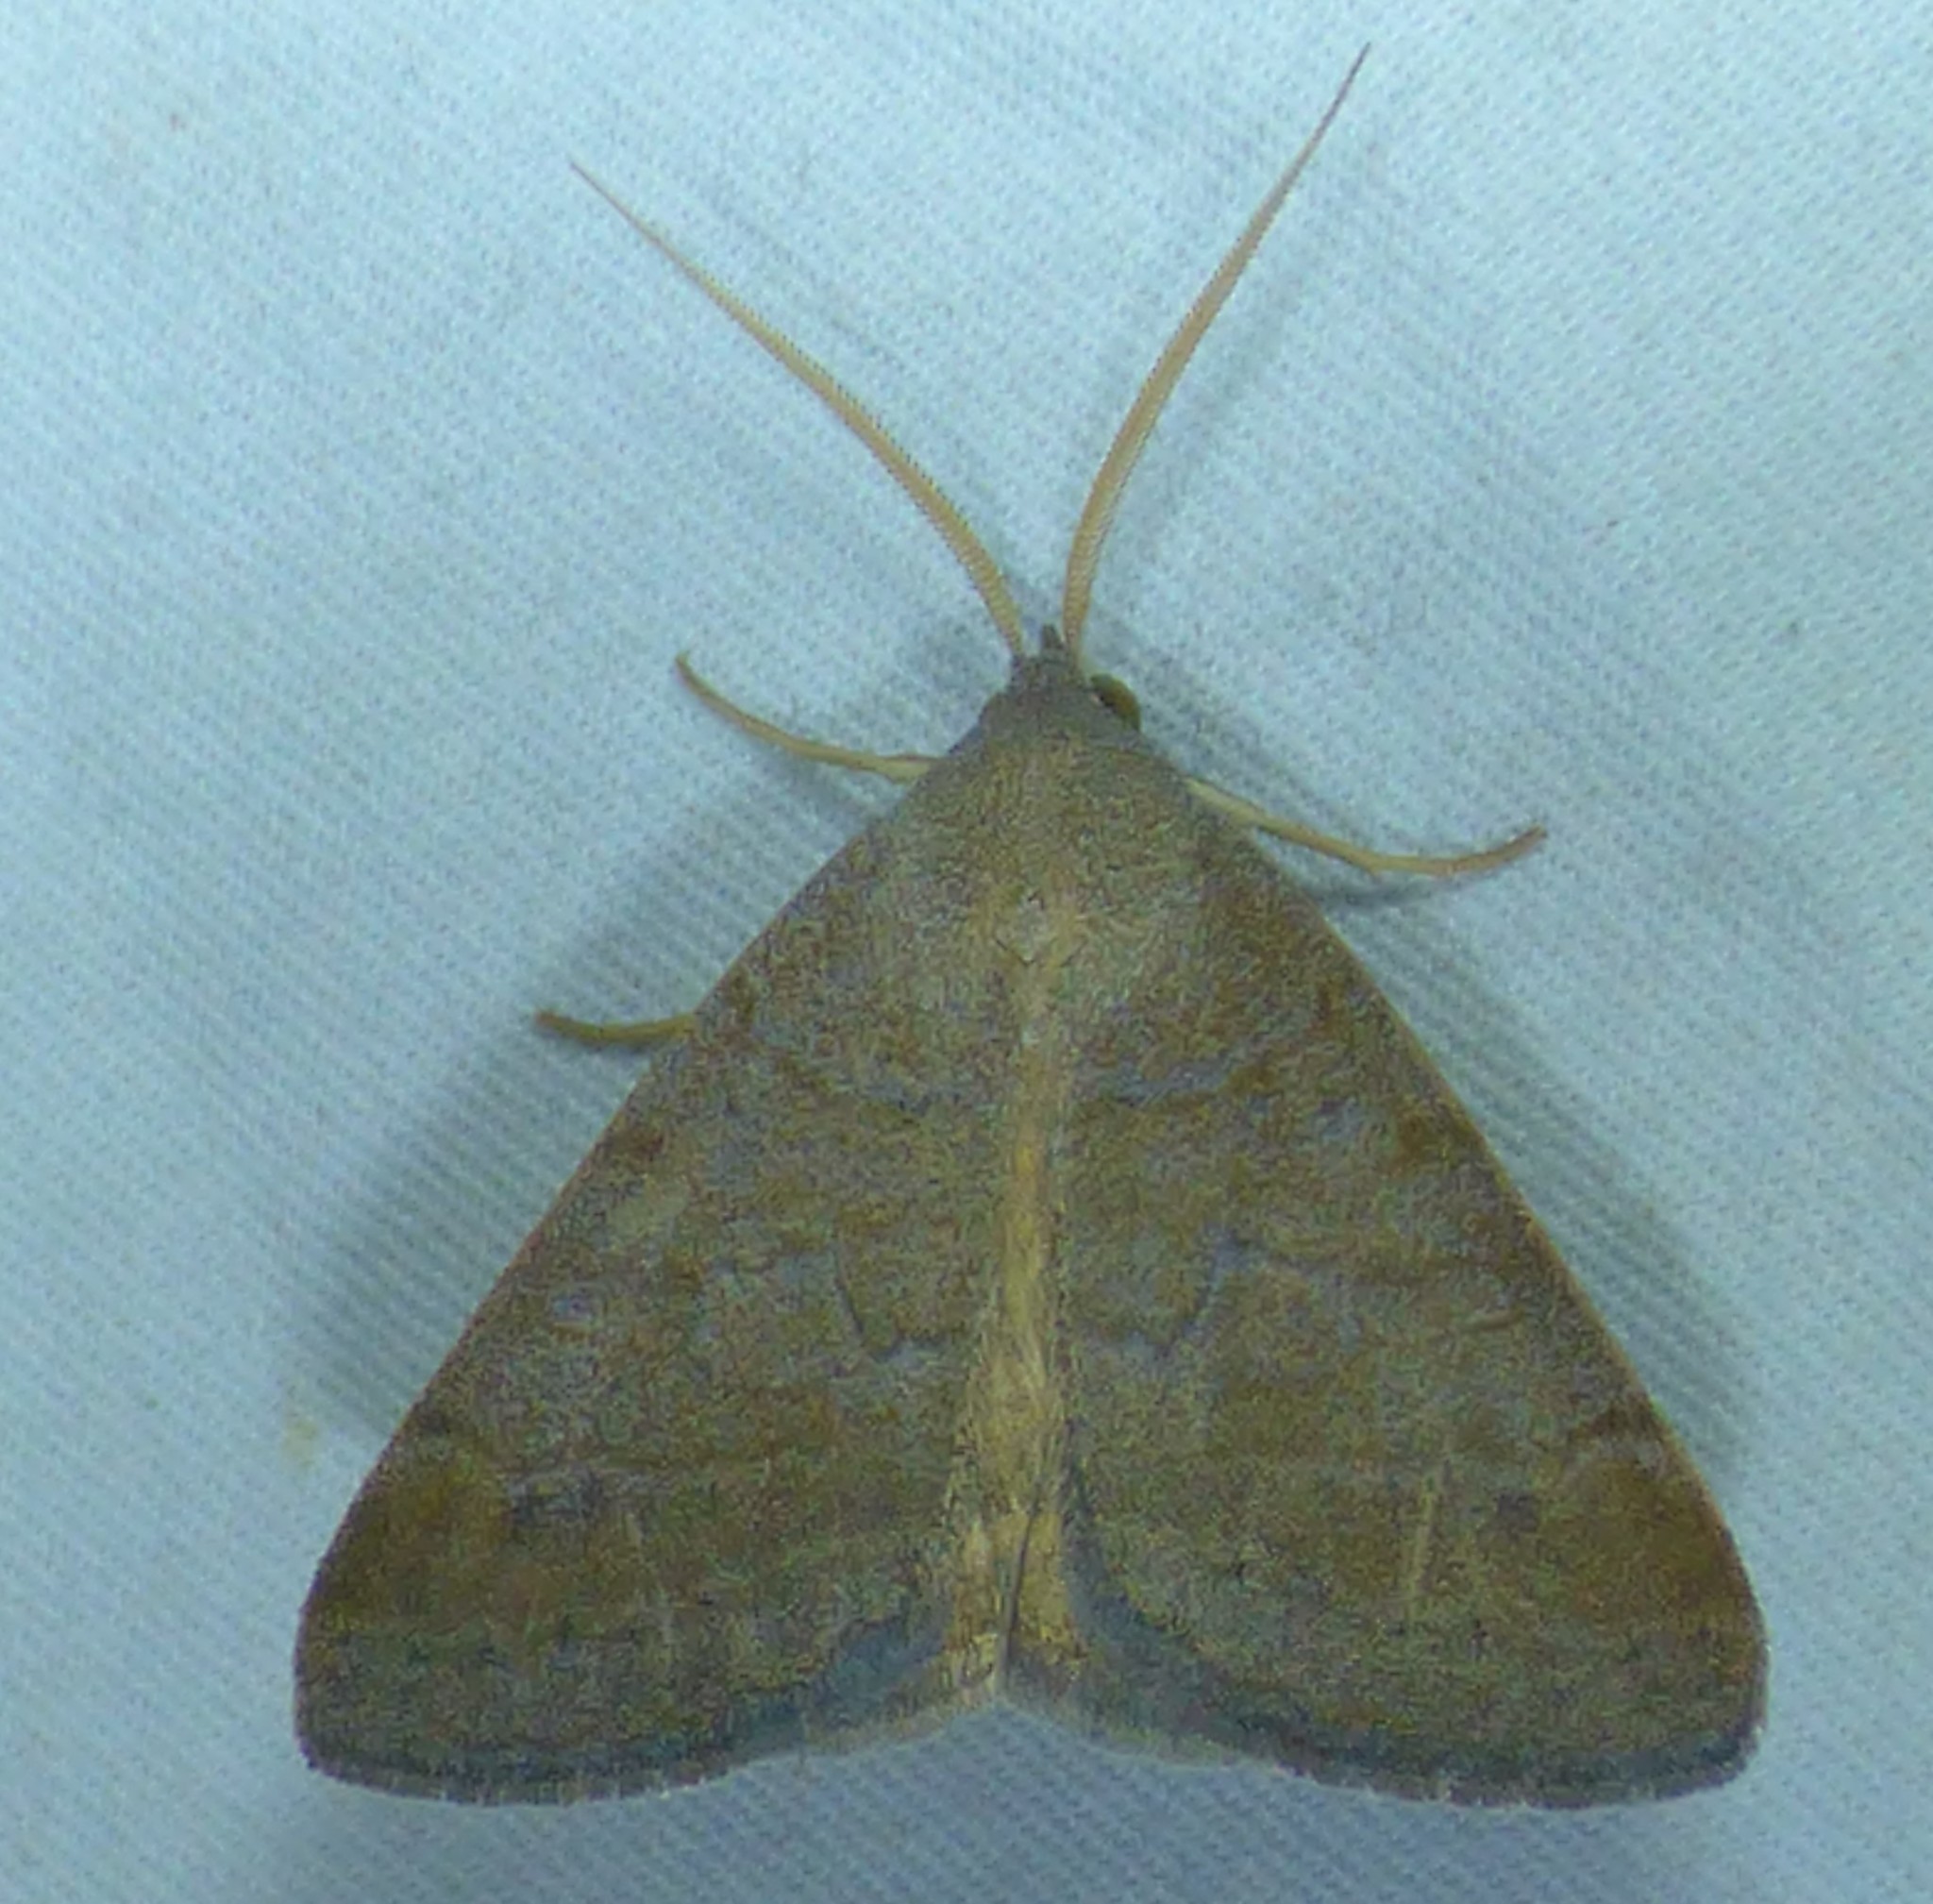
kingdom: Animalia
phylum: Arthropoda
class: Insecta
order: Lepidoptera
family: Erebidae
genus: Caenurgia
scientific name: Caenurgia chloropha
